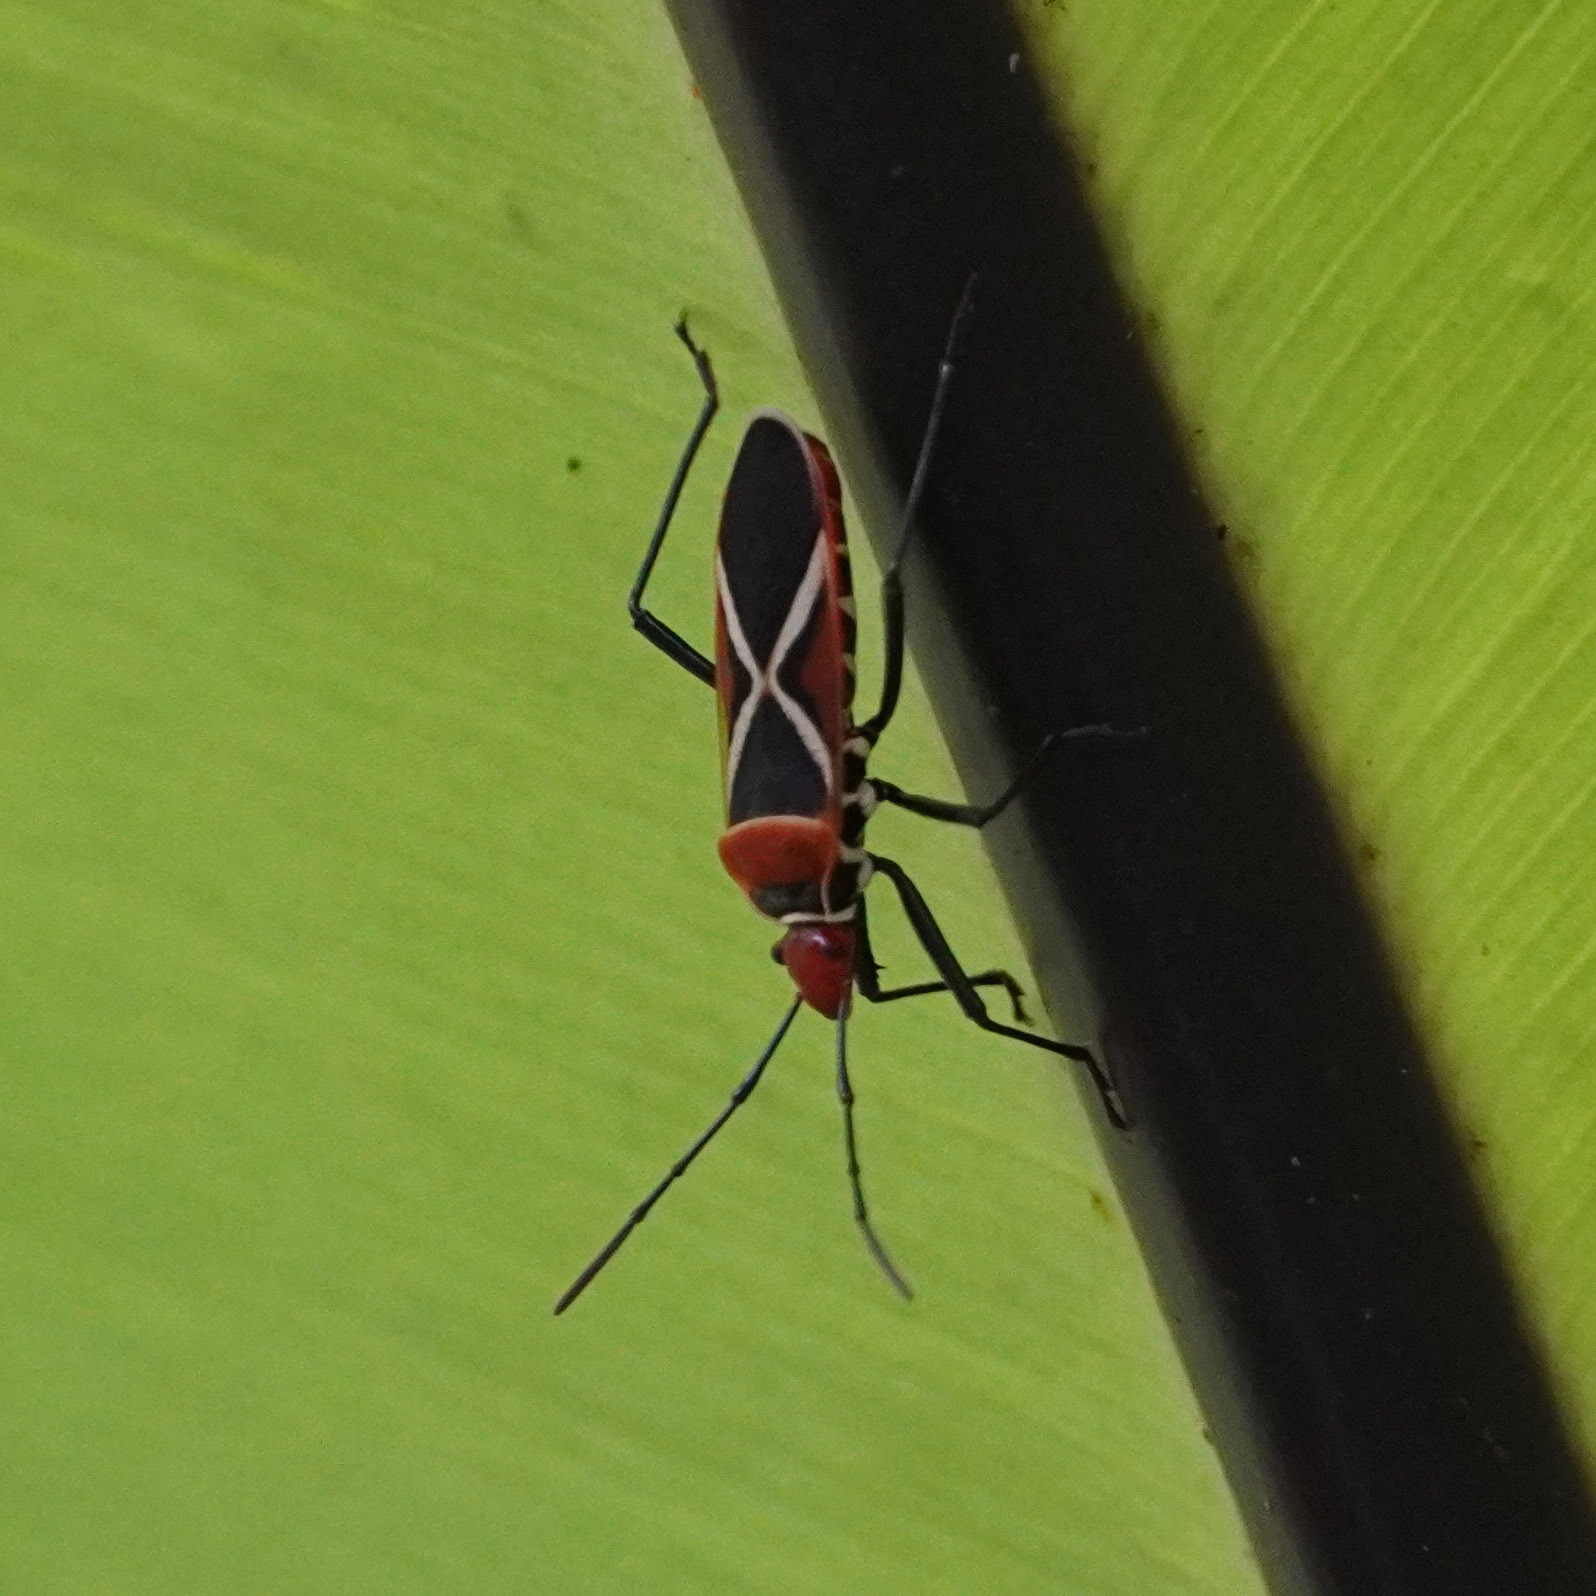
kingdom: Animalia
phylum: Arthropoda
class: Insecta
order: Hemiptera
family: Pyrrhocoridae
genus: Dysdercus
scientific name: Dysdercus decussatus
